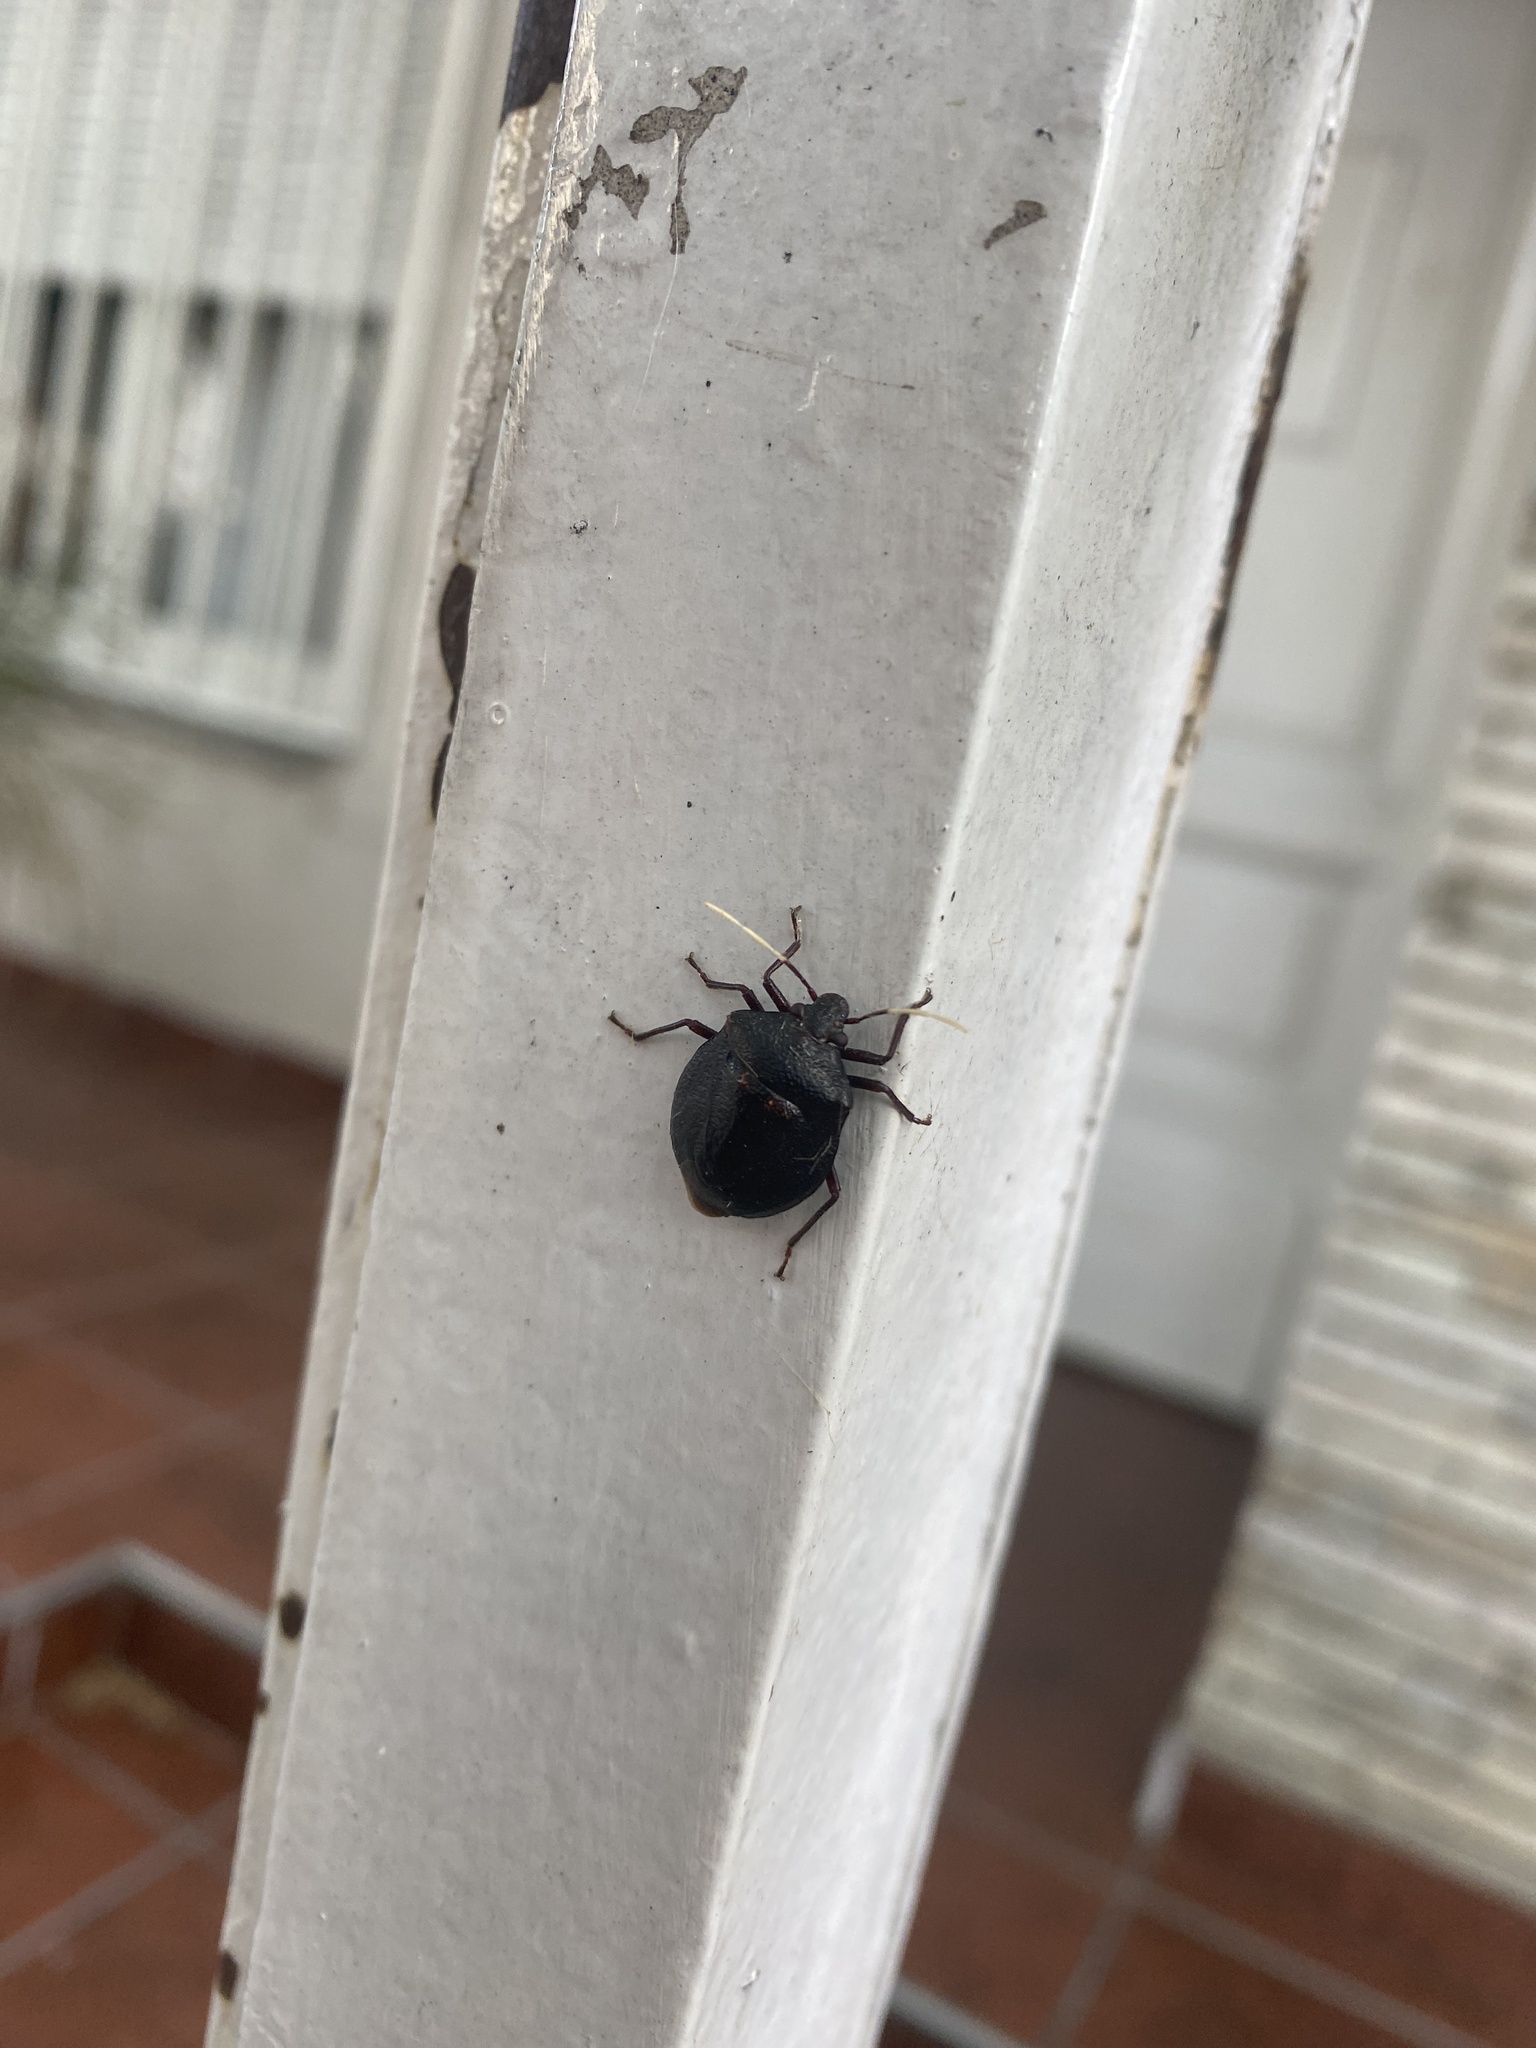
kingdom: Animalia
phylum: Arthropoda
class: Insecta
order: Hemiptera
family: Pentatomidae
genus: Antiteuchus
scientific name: Antiteuchus mixtus
